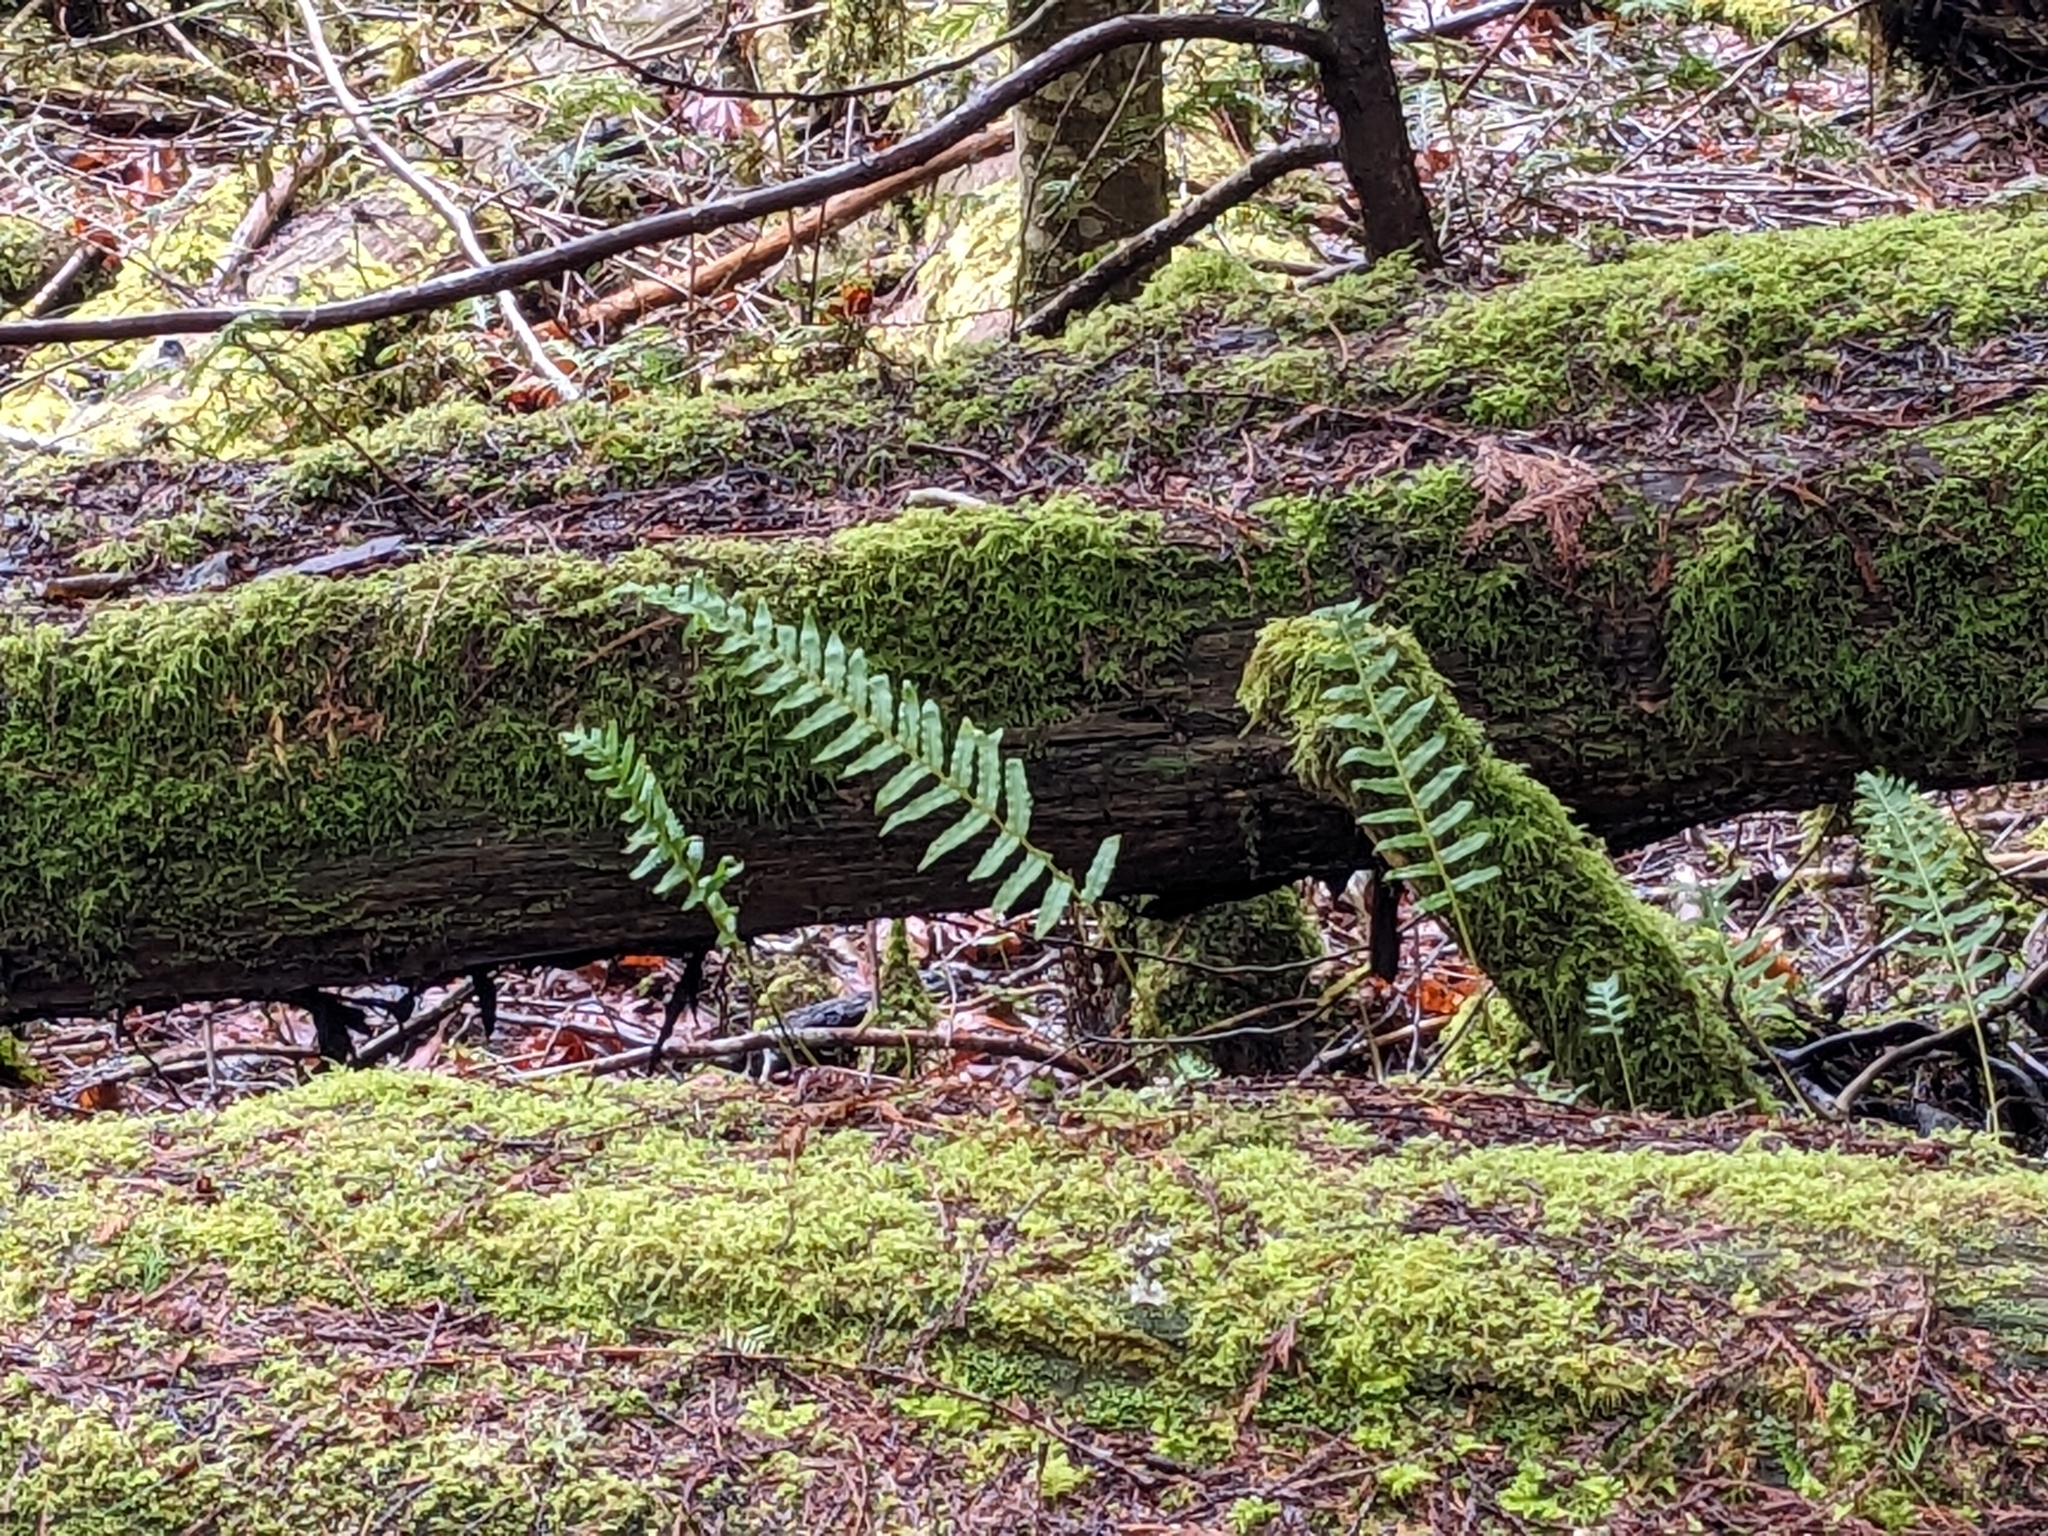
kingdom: Plantae
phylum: Tracheophyta
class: Polypodiopsida
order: Polypodiales
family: Polypodiaceae
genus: Polypodium
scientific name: Polypodium glycyrrhiza
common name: Licorice fern
